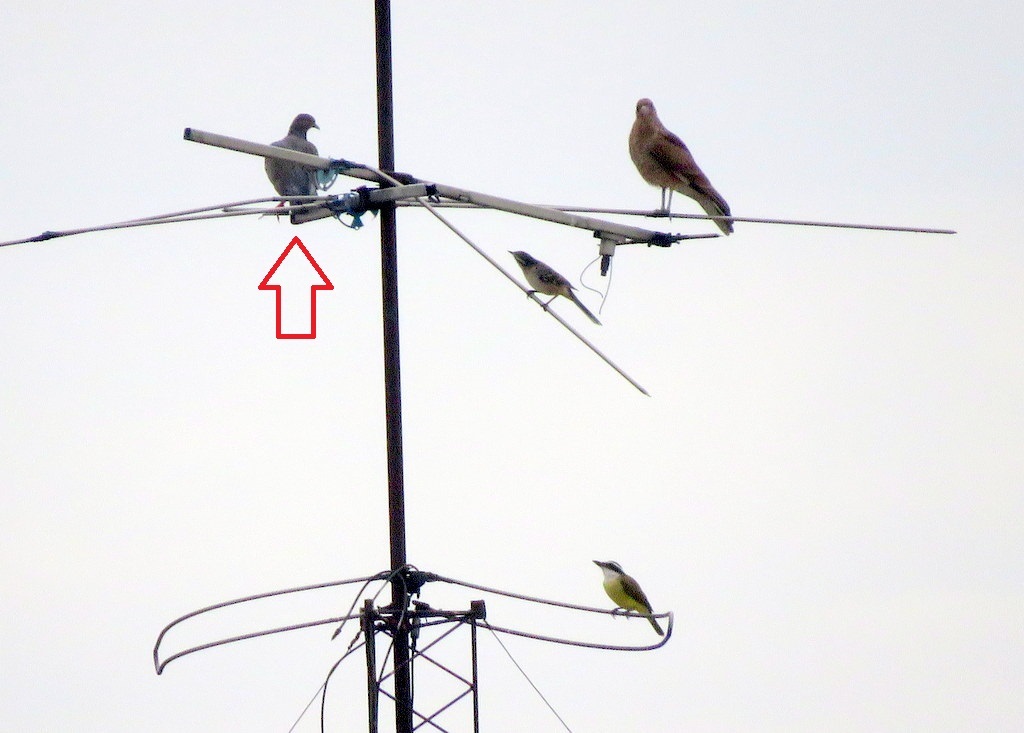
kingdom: Animalia
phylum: Chordata
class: Aves
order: Columbiformes
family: Columbidae
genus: Patagioenas
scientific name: Patagioenas picazuro
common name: Picazuro pigeon
